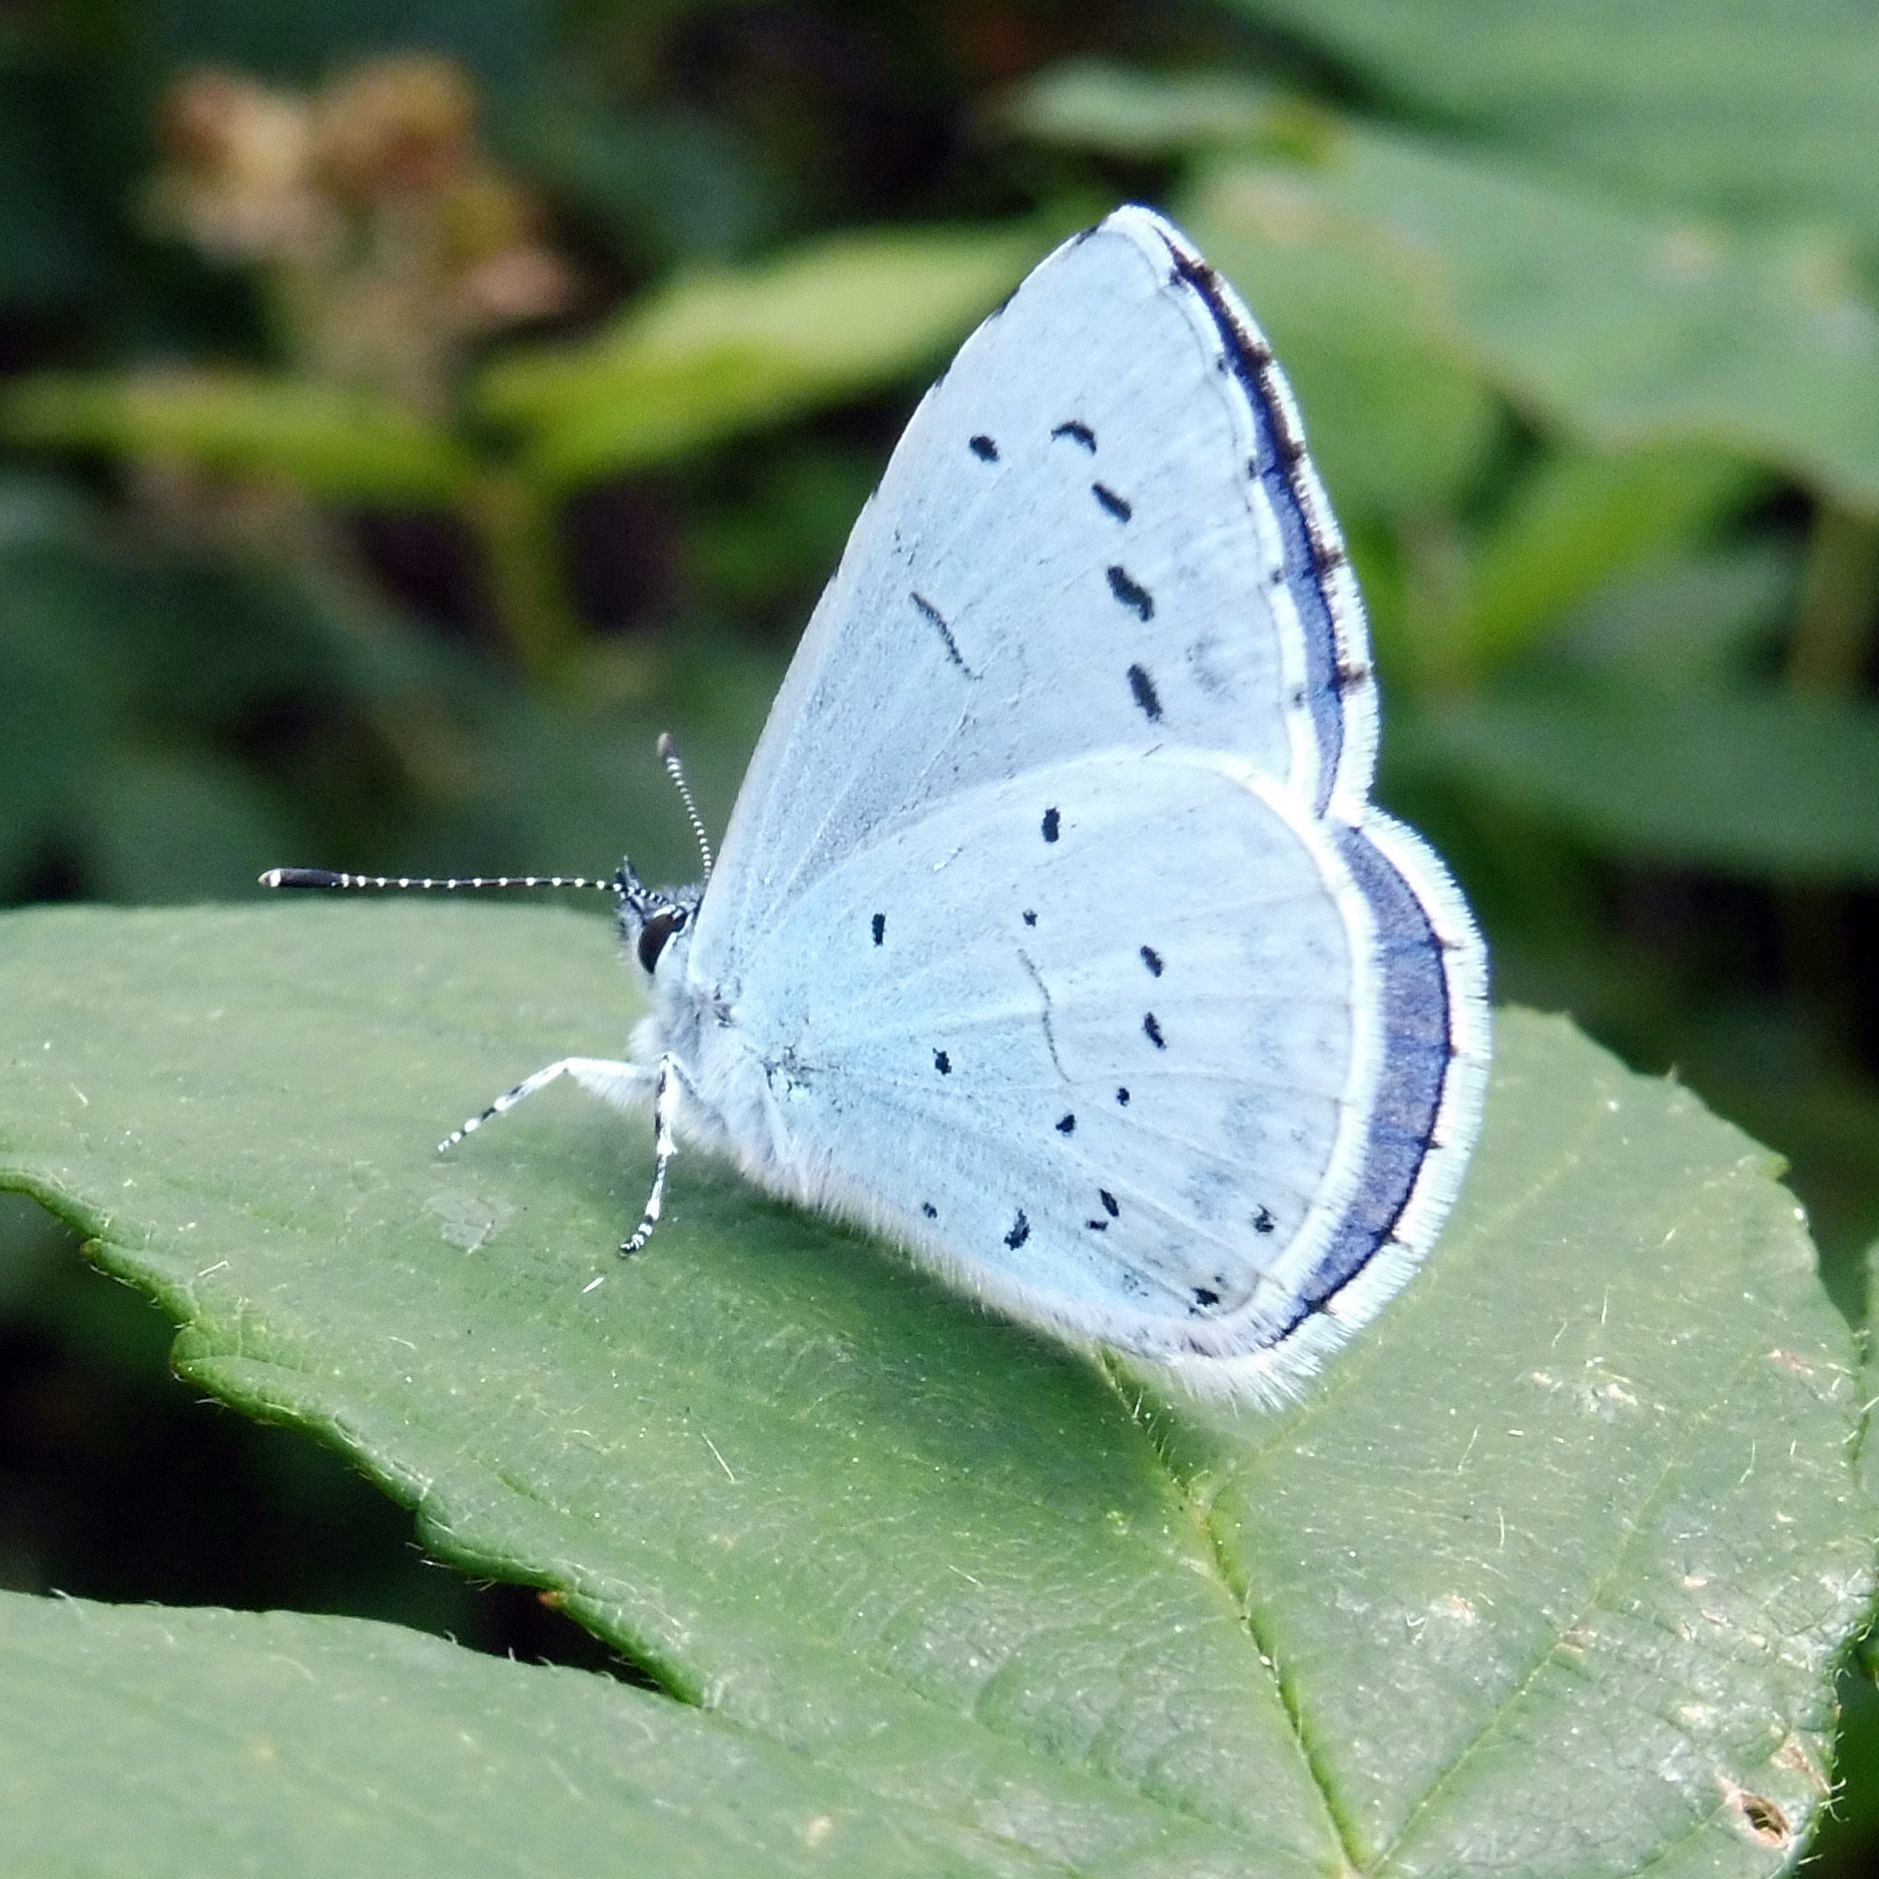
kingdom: Animalia
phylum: Arthropoda
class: Insecta
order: Lepidoptera
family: Lycaenidae
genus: Celastrina
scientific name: Celastrina argiolus
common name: Holly blue
